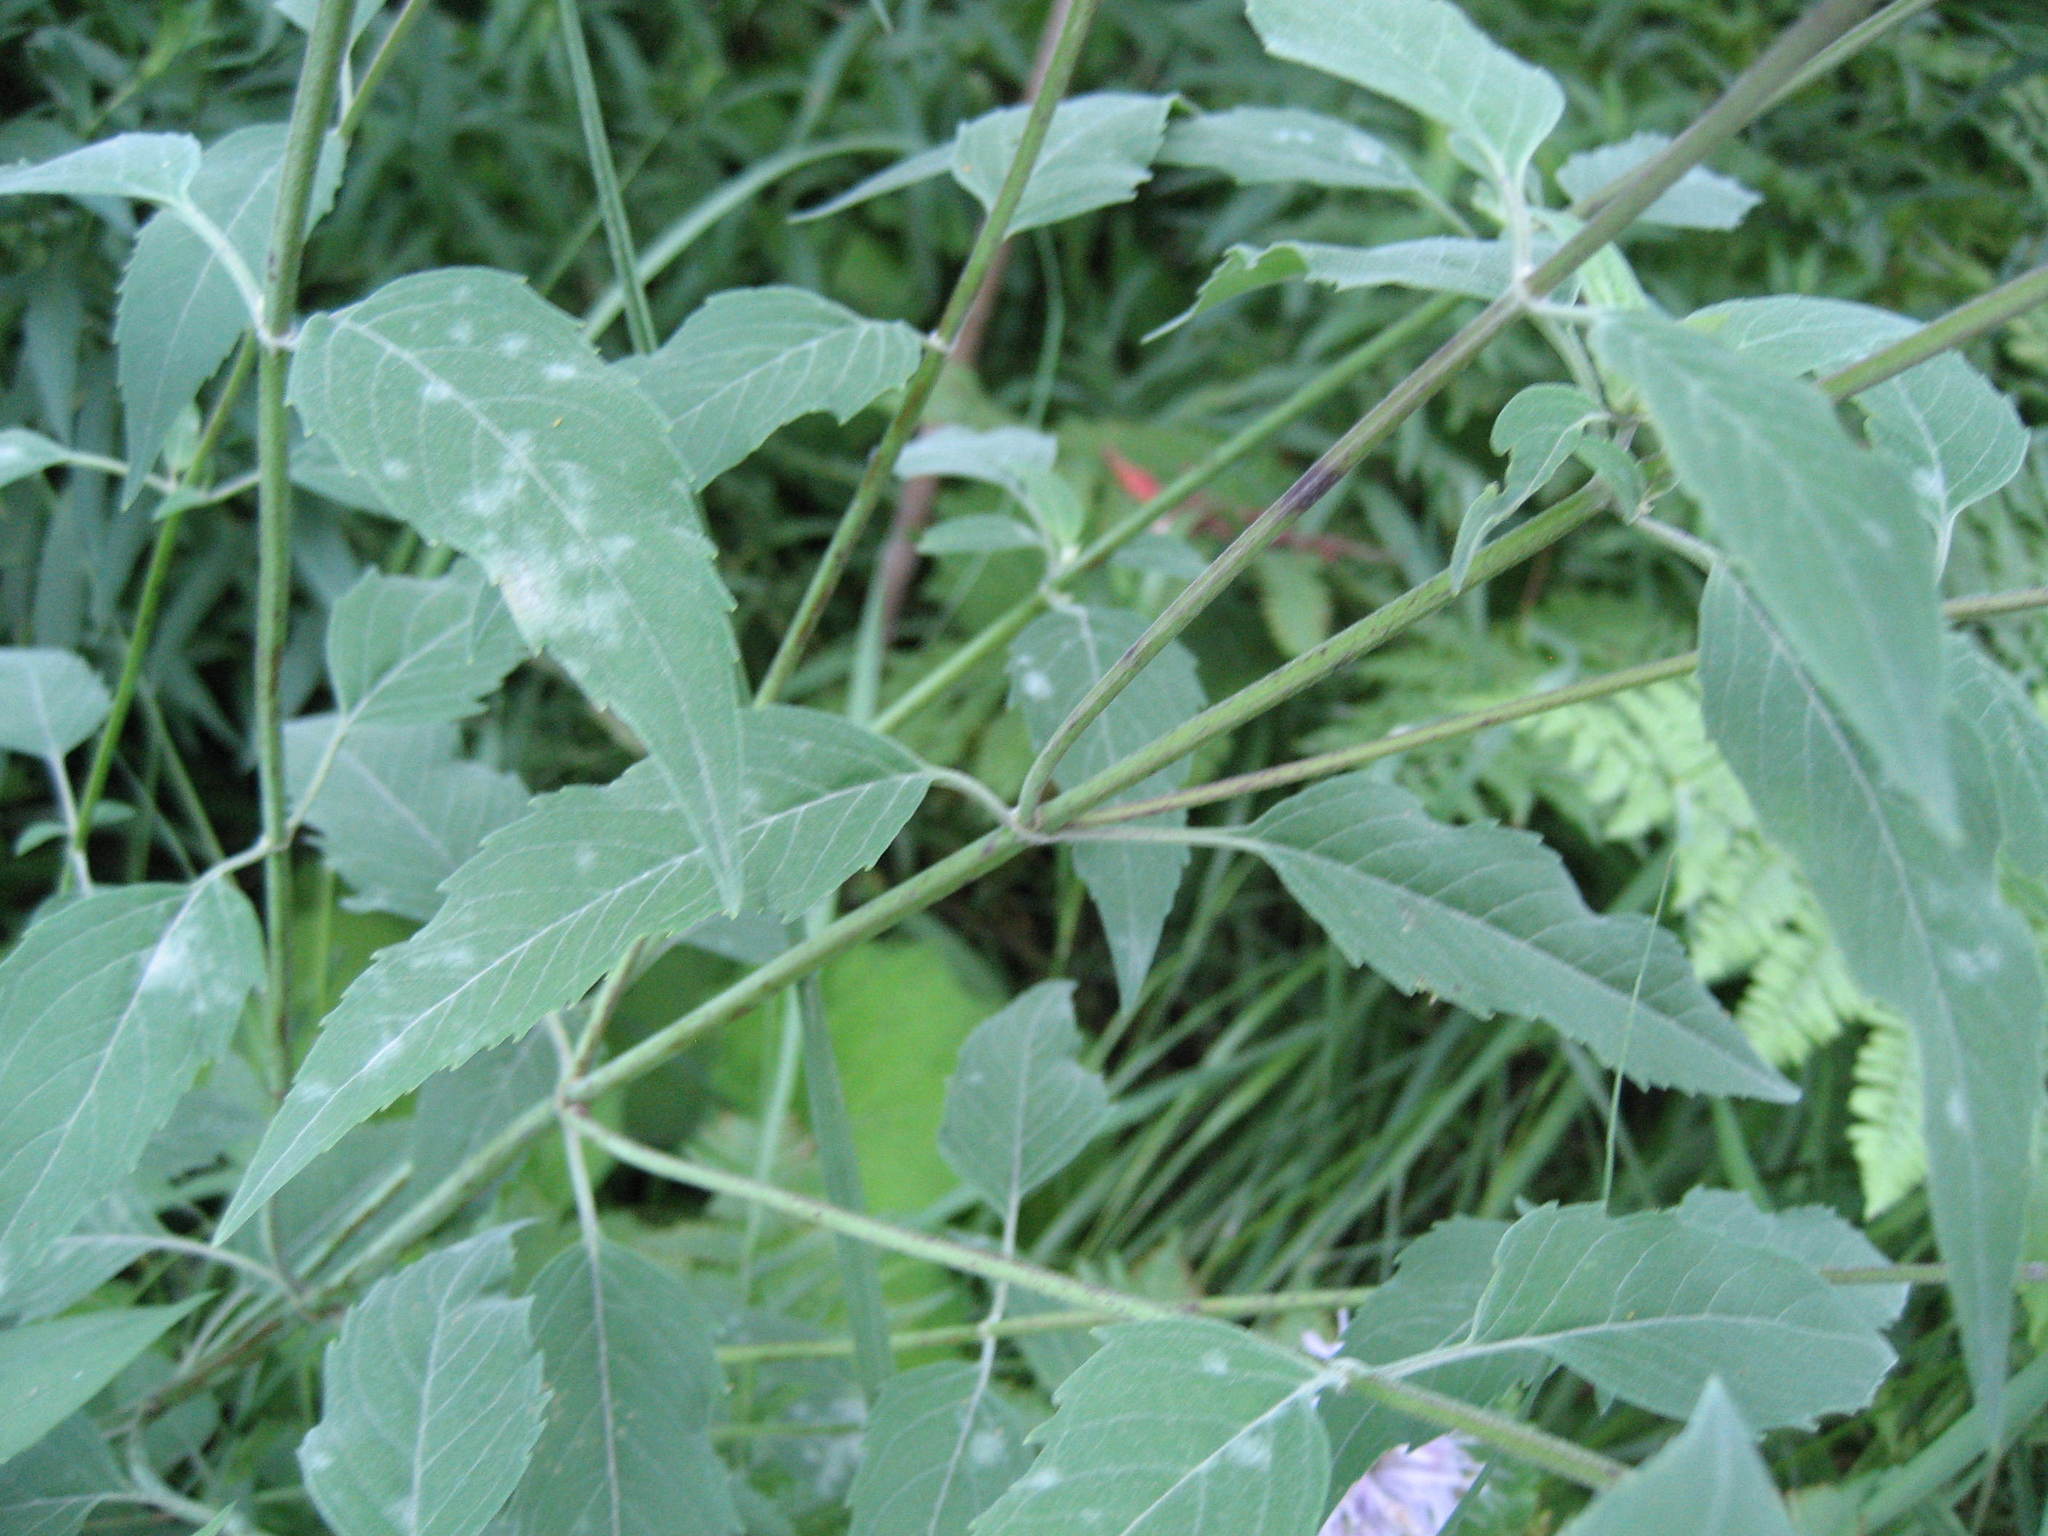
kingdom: Plantae
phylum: Tracheophyta
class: Magnoliopsida
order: Lamiales
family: Lamiaceae
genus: Monarda
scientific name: Monarda fistulosa
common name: Purple beebalm
